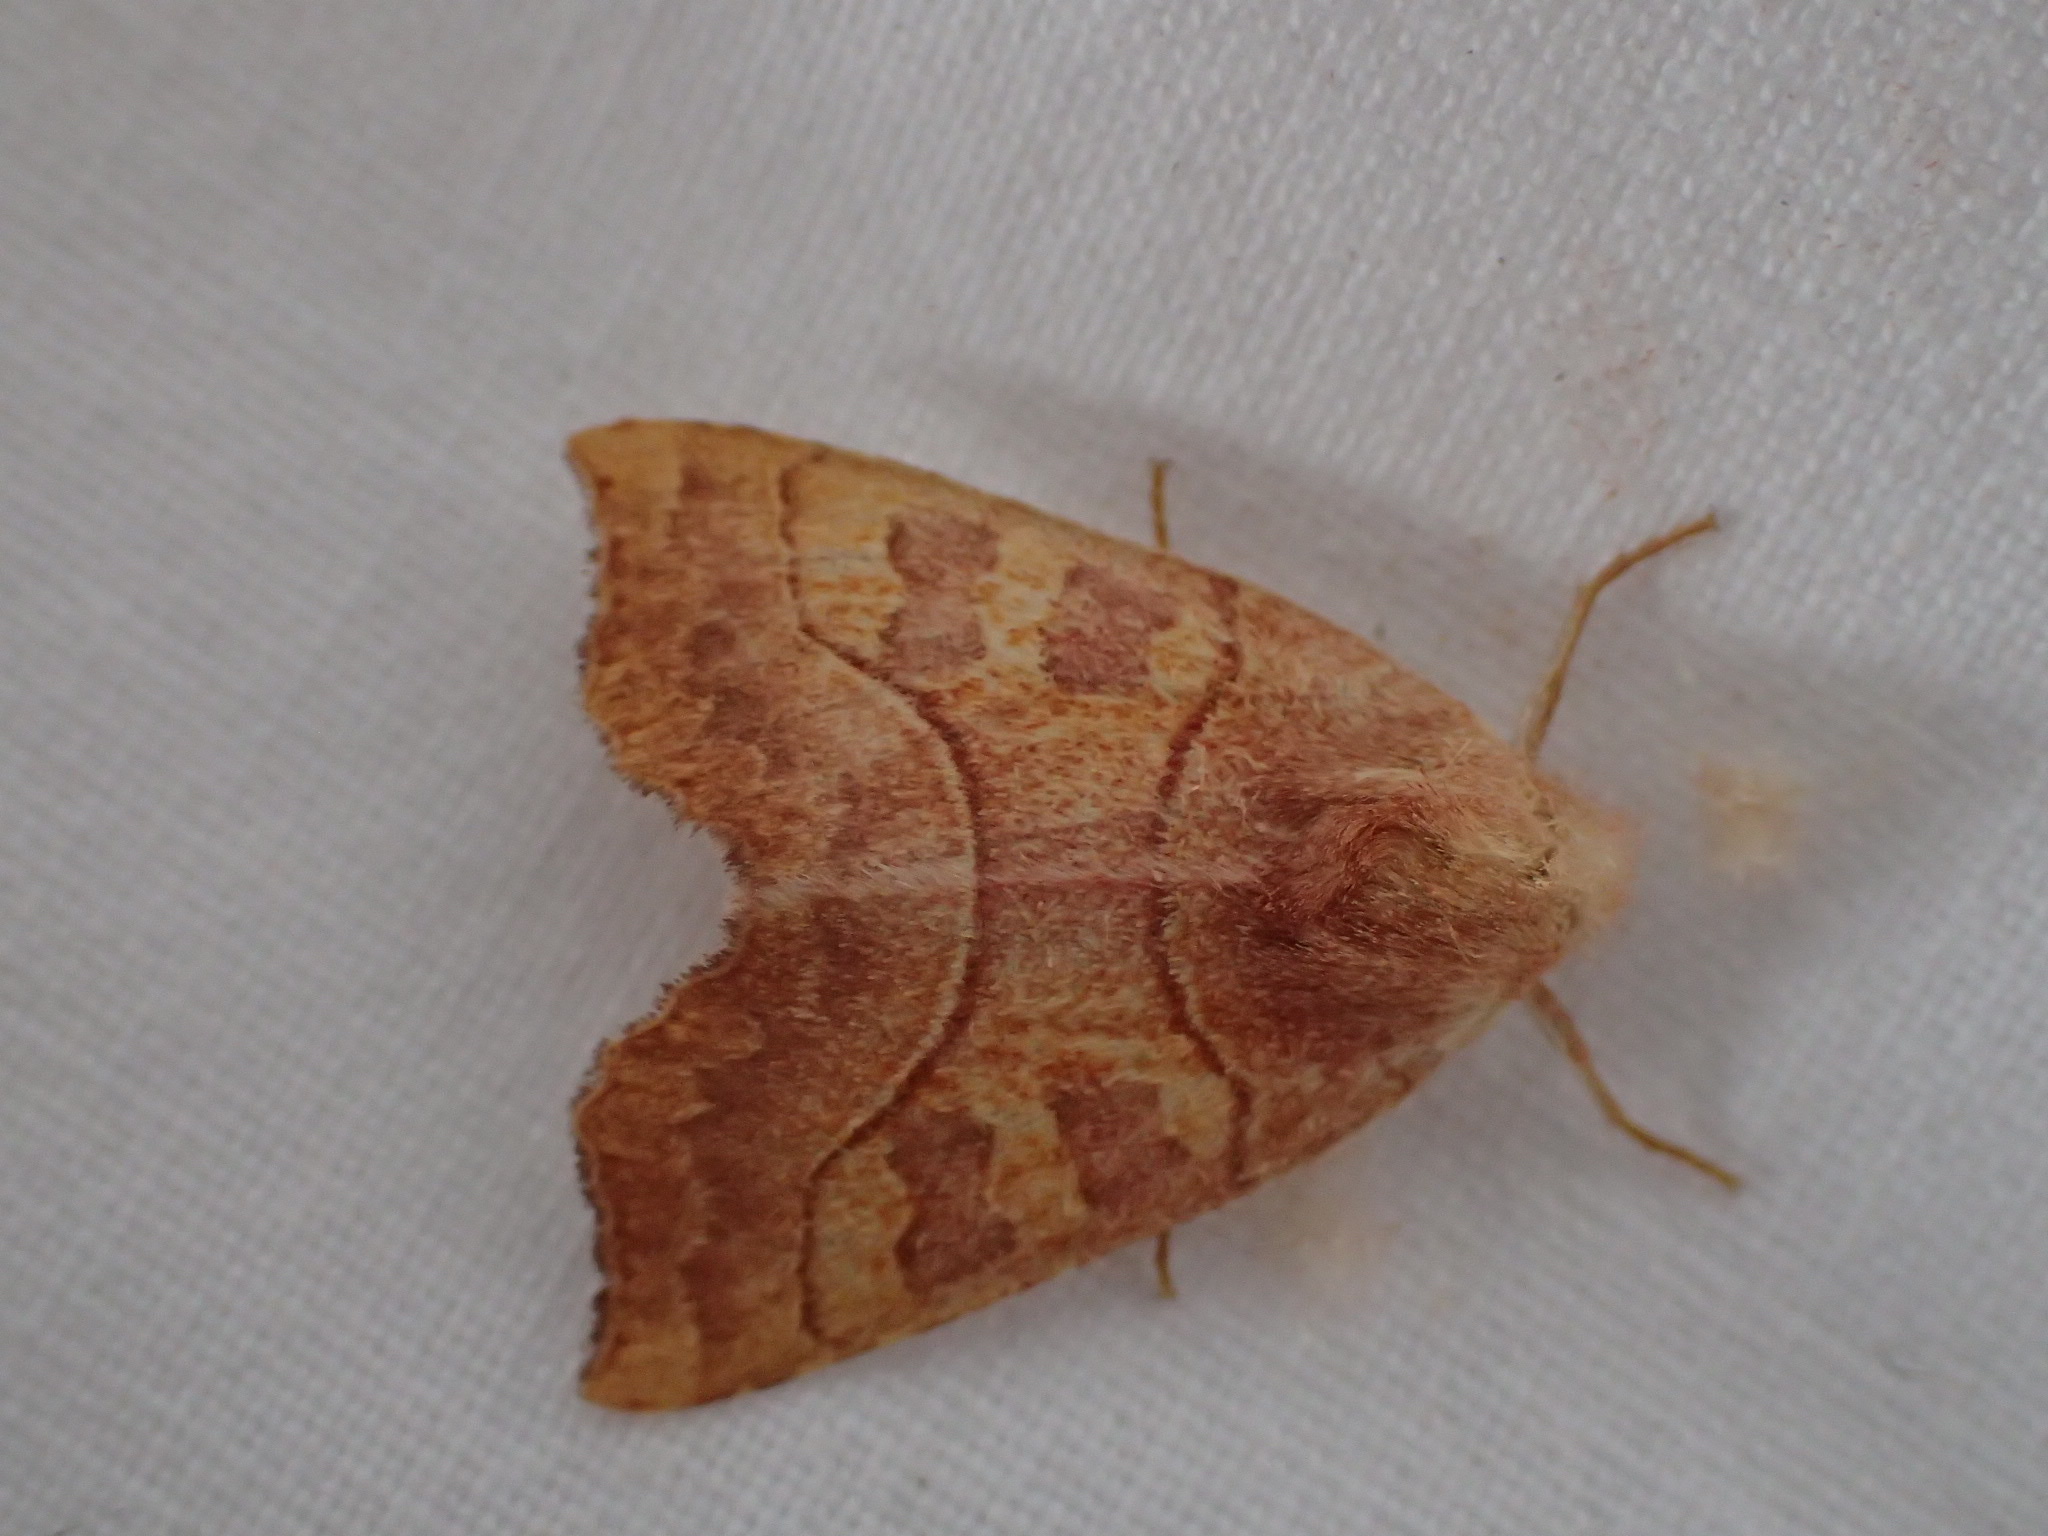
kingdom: Animalia
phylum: Arthropoda
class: Insecta
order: Lepidoptera
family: Noctuidae
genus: Eucirroedia
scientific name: Eucirroedia pampina
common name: Scalloped sallow
